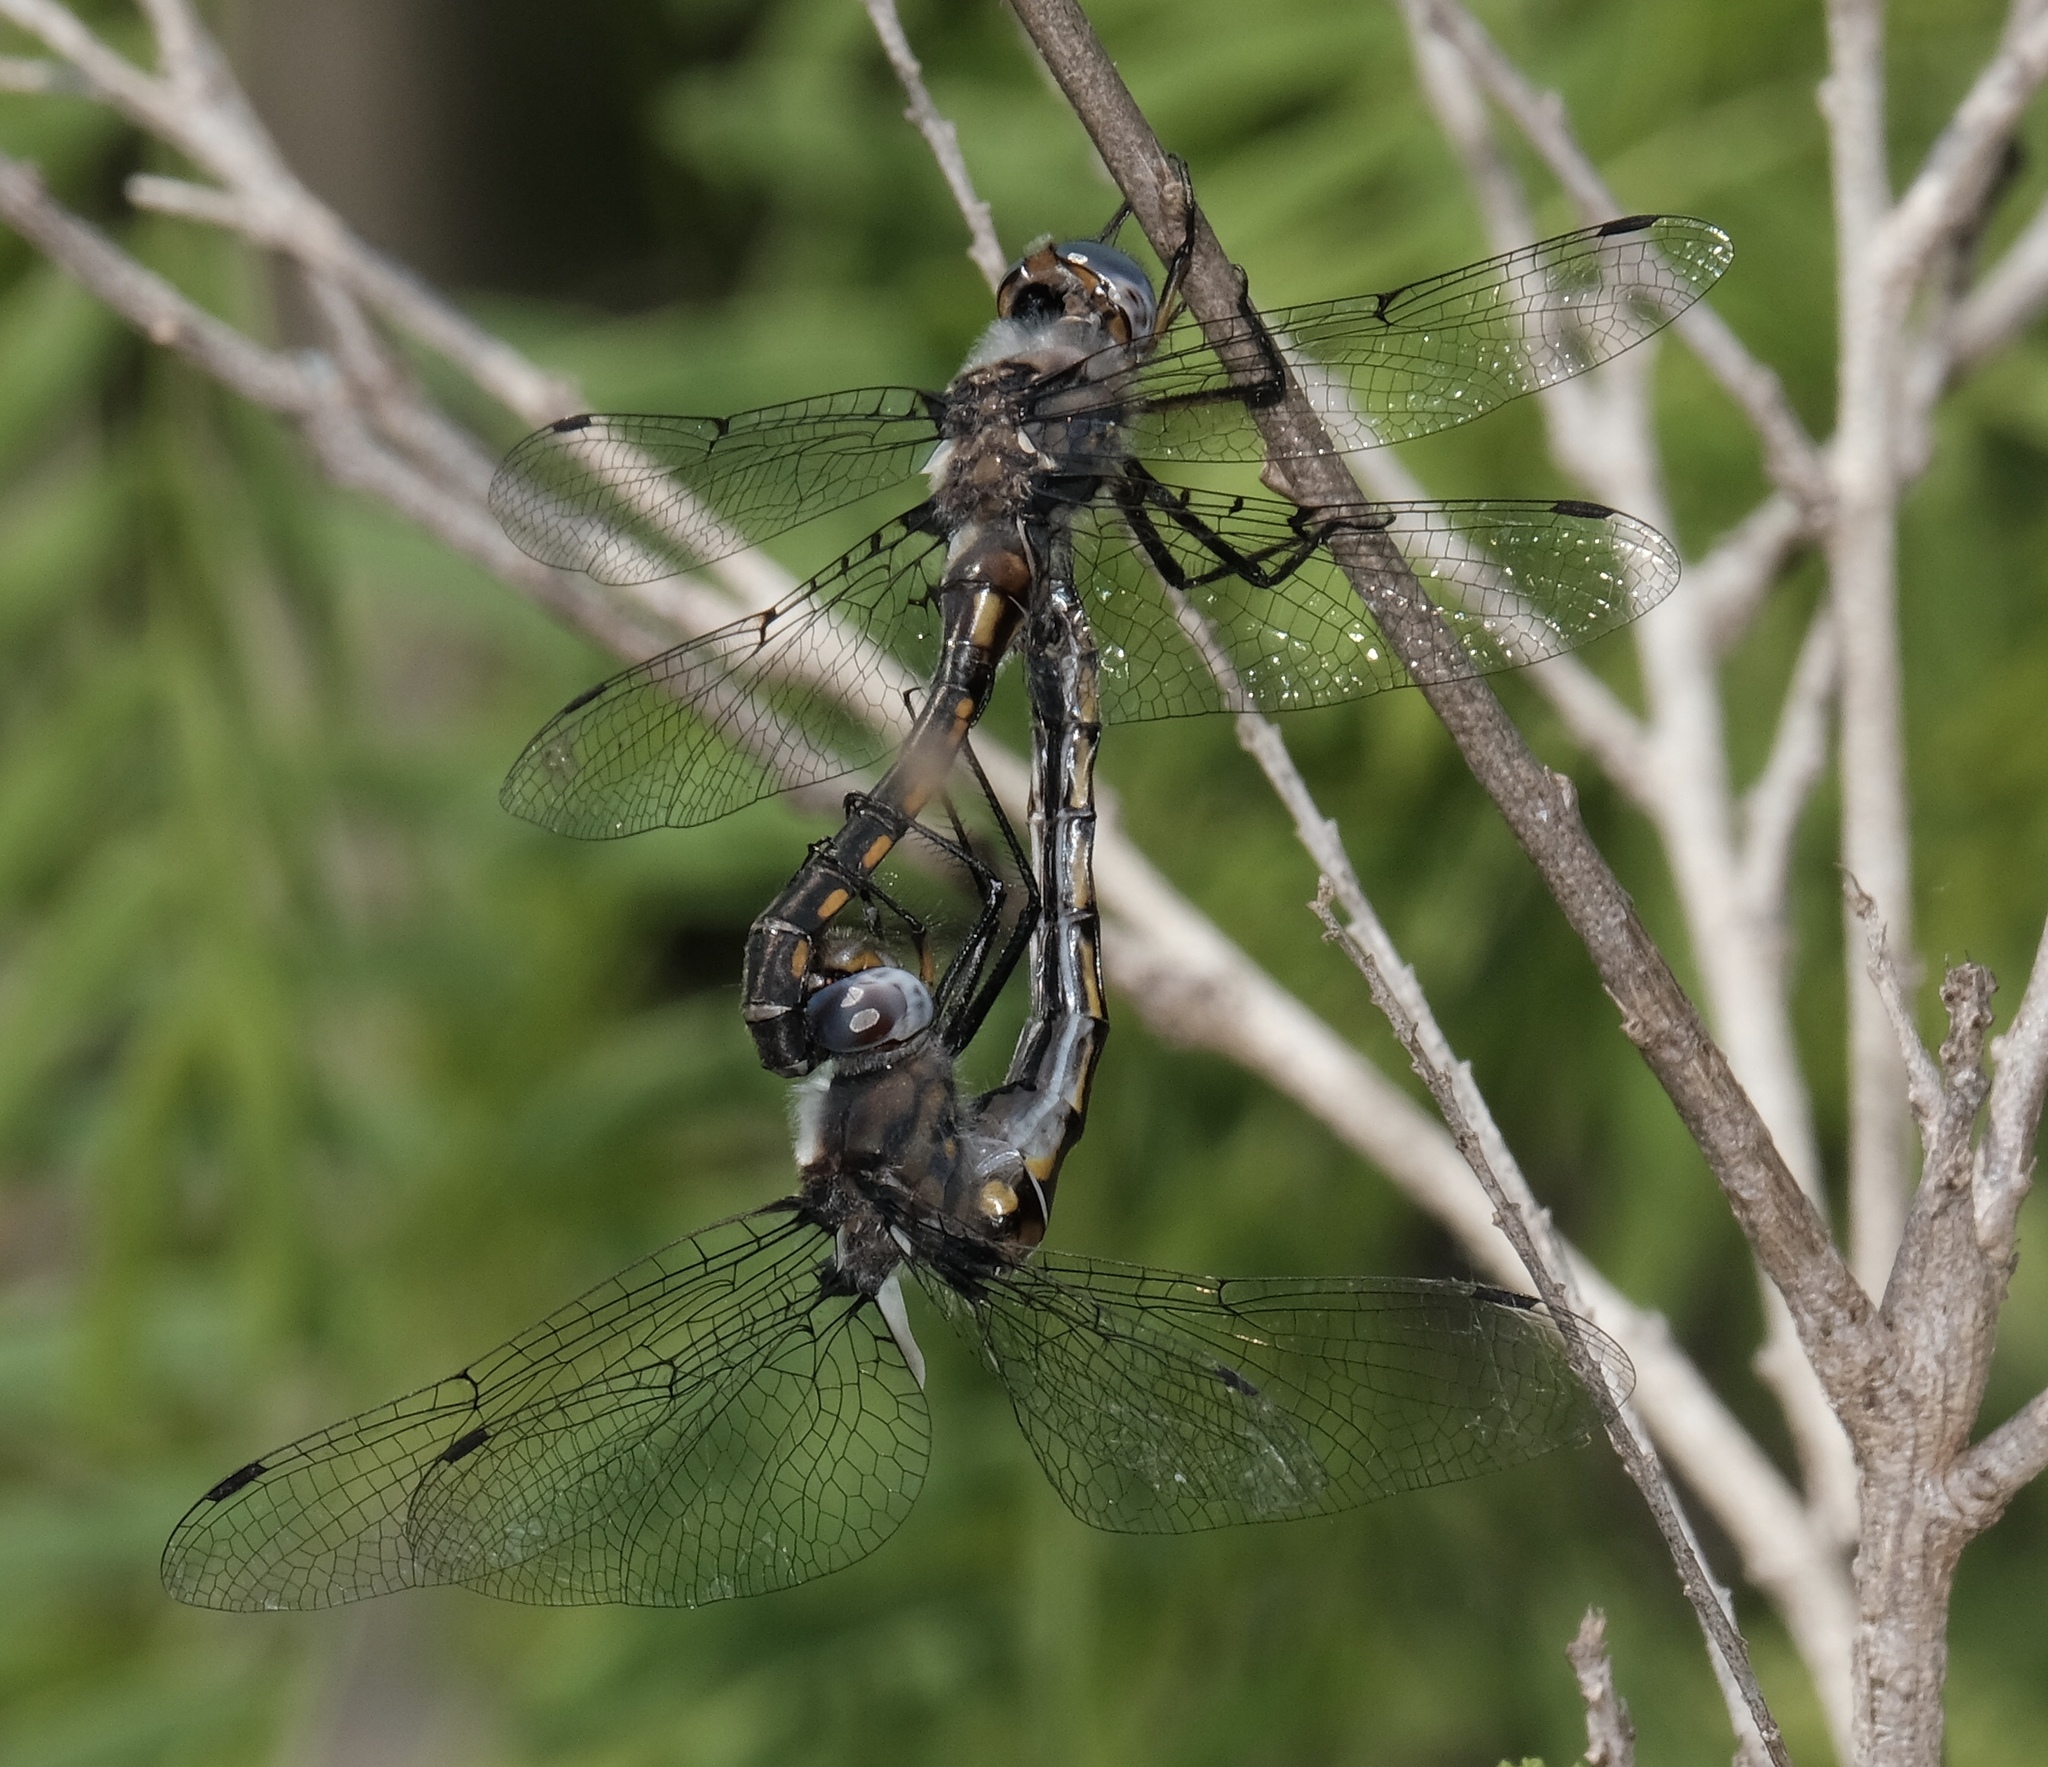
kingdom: Animalia
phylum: Arthropoda
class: Insecta
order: Odonata
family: Corduliidae
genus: Epitheca
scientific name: Epitheca petechialis
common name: Dot-winged baskettail
